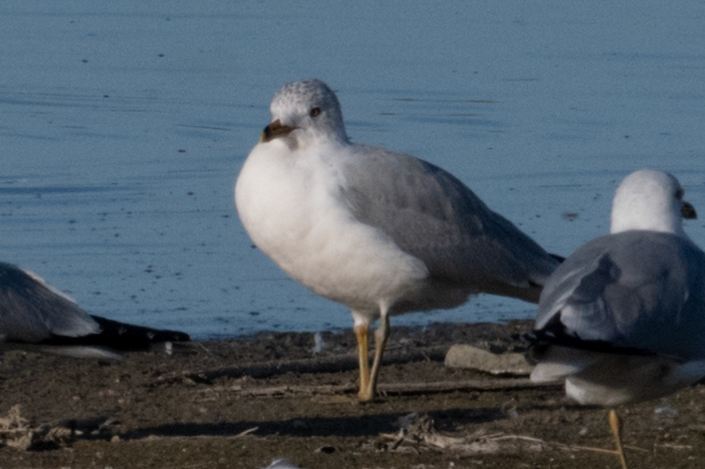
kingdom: Animalia
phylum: Chordata
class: Aves
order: Charadriiformes
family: Laridae
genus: Larus
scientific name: Larus delawarensis
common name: Ring-billed gull
